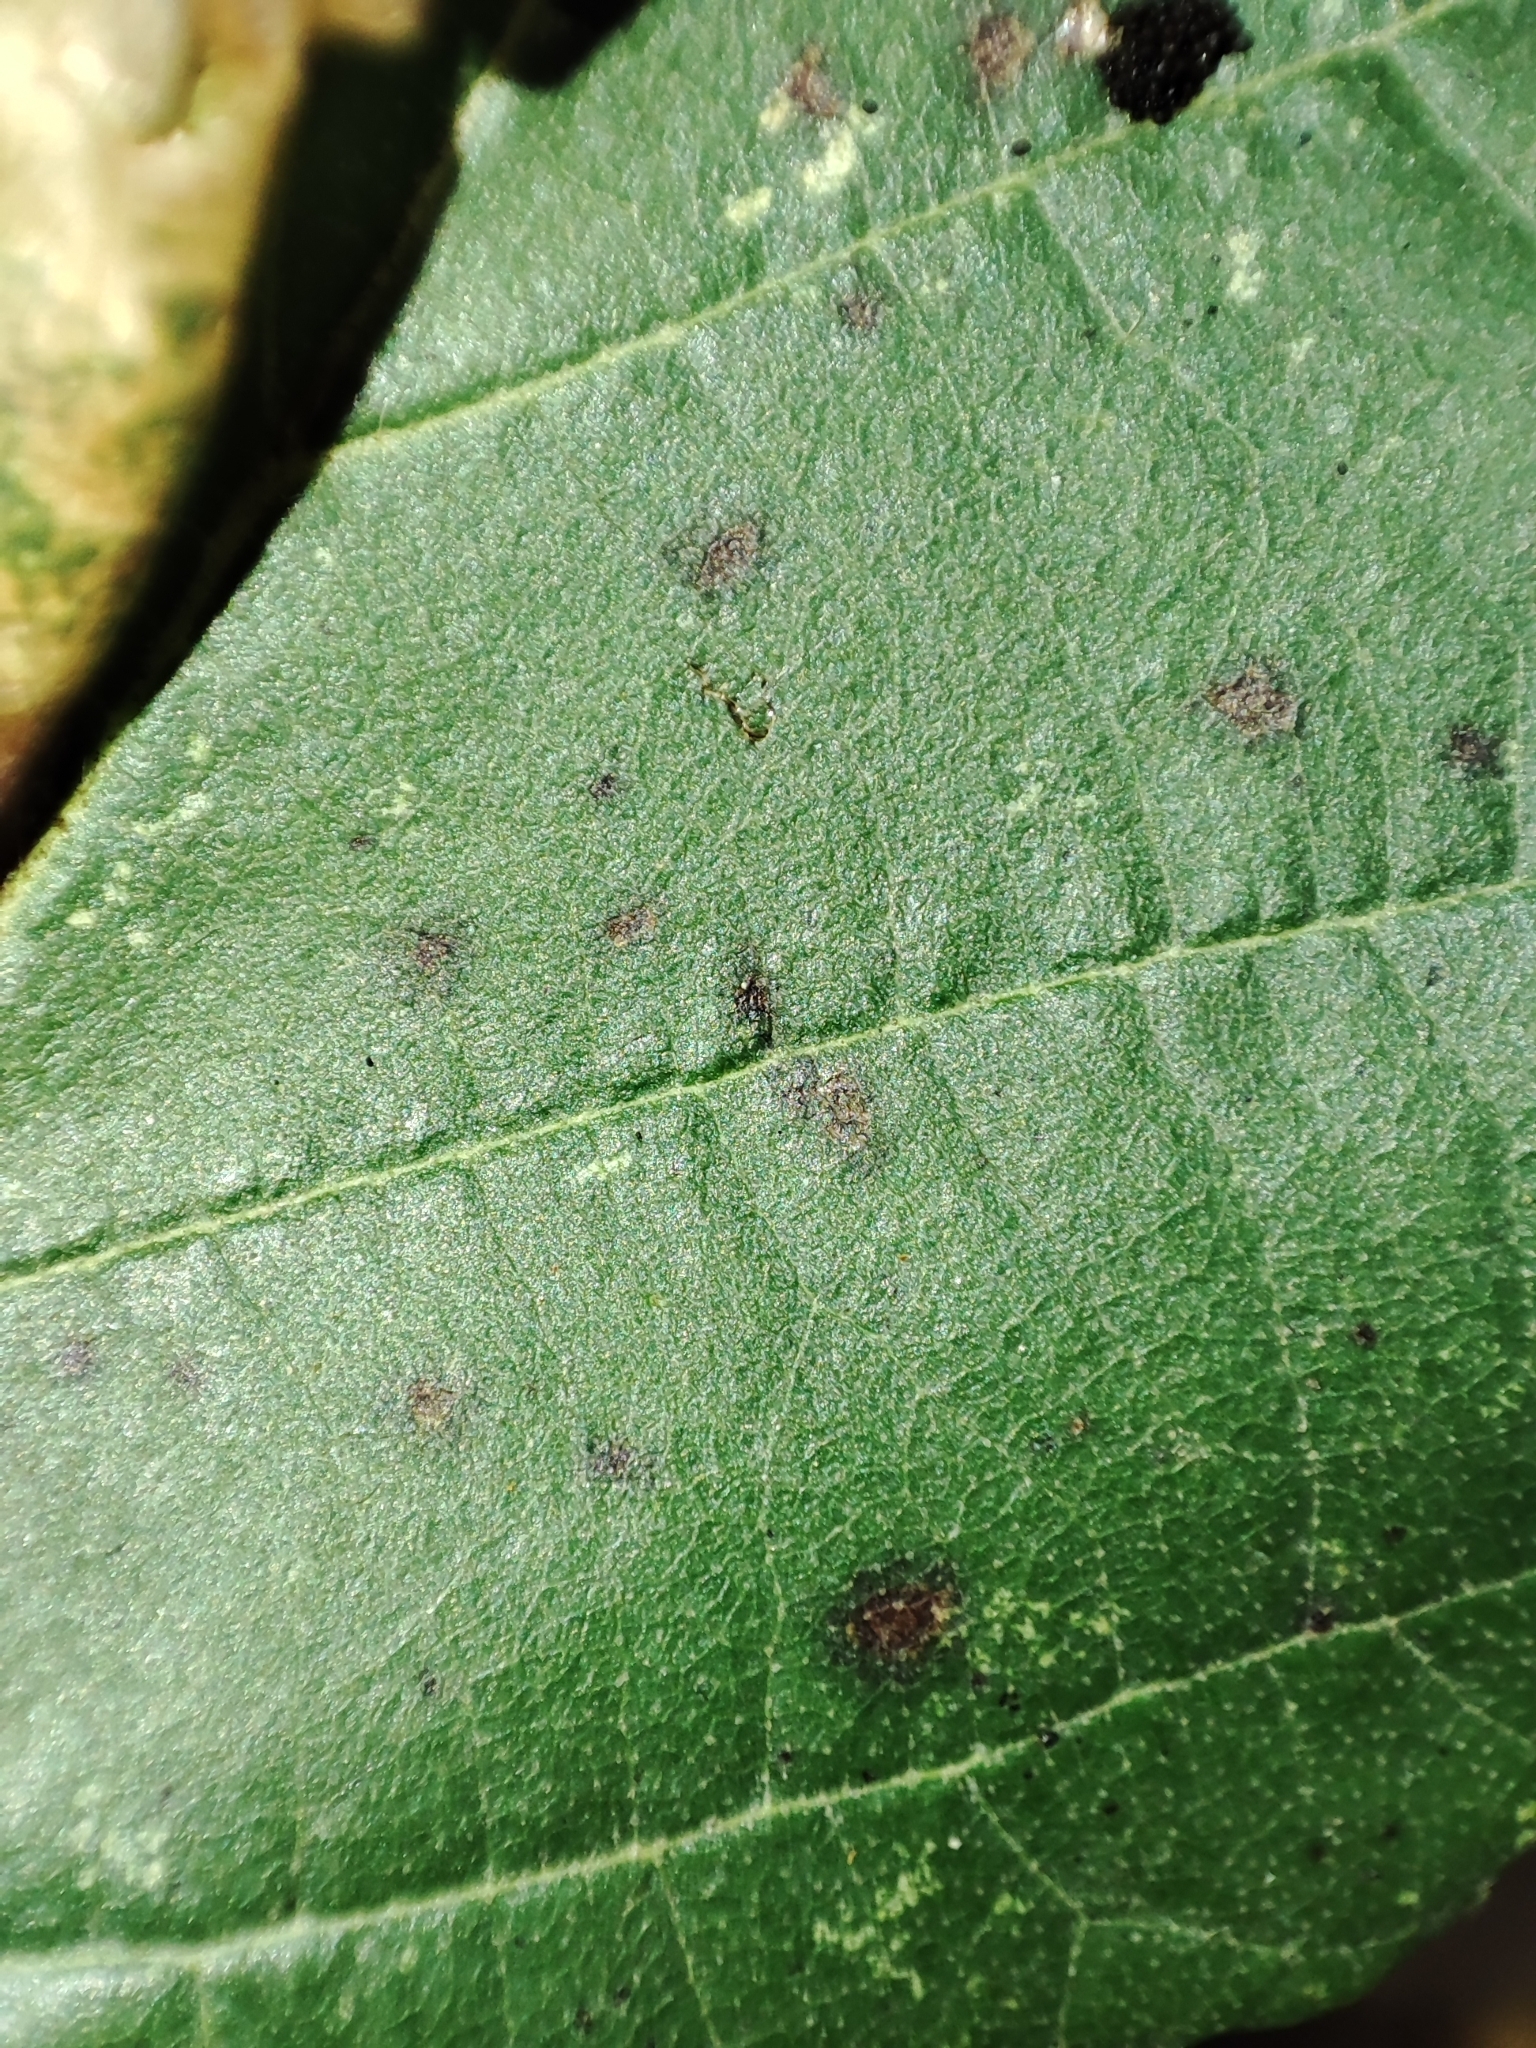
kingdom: Plantae
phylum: Tracheophyta
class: Magnoliopsida
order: Fagales
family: Betulaceae
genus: Alnus
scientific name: Alnus glutinosa
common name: Black alder
